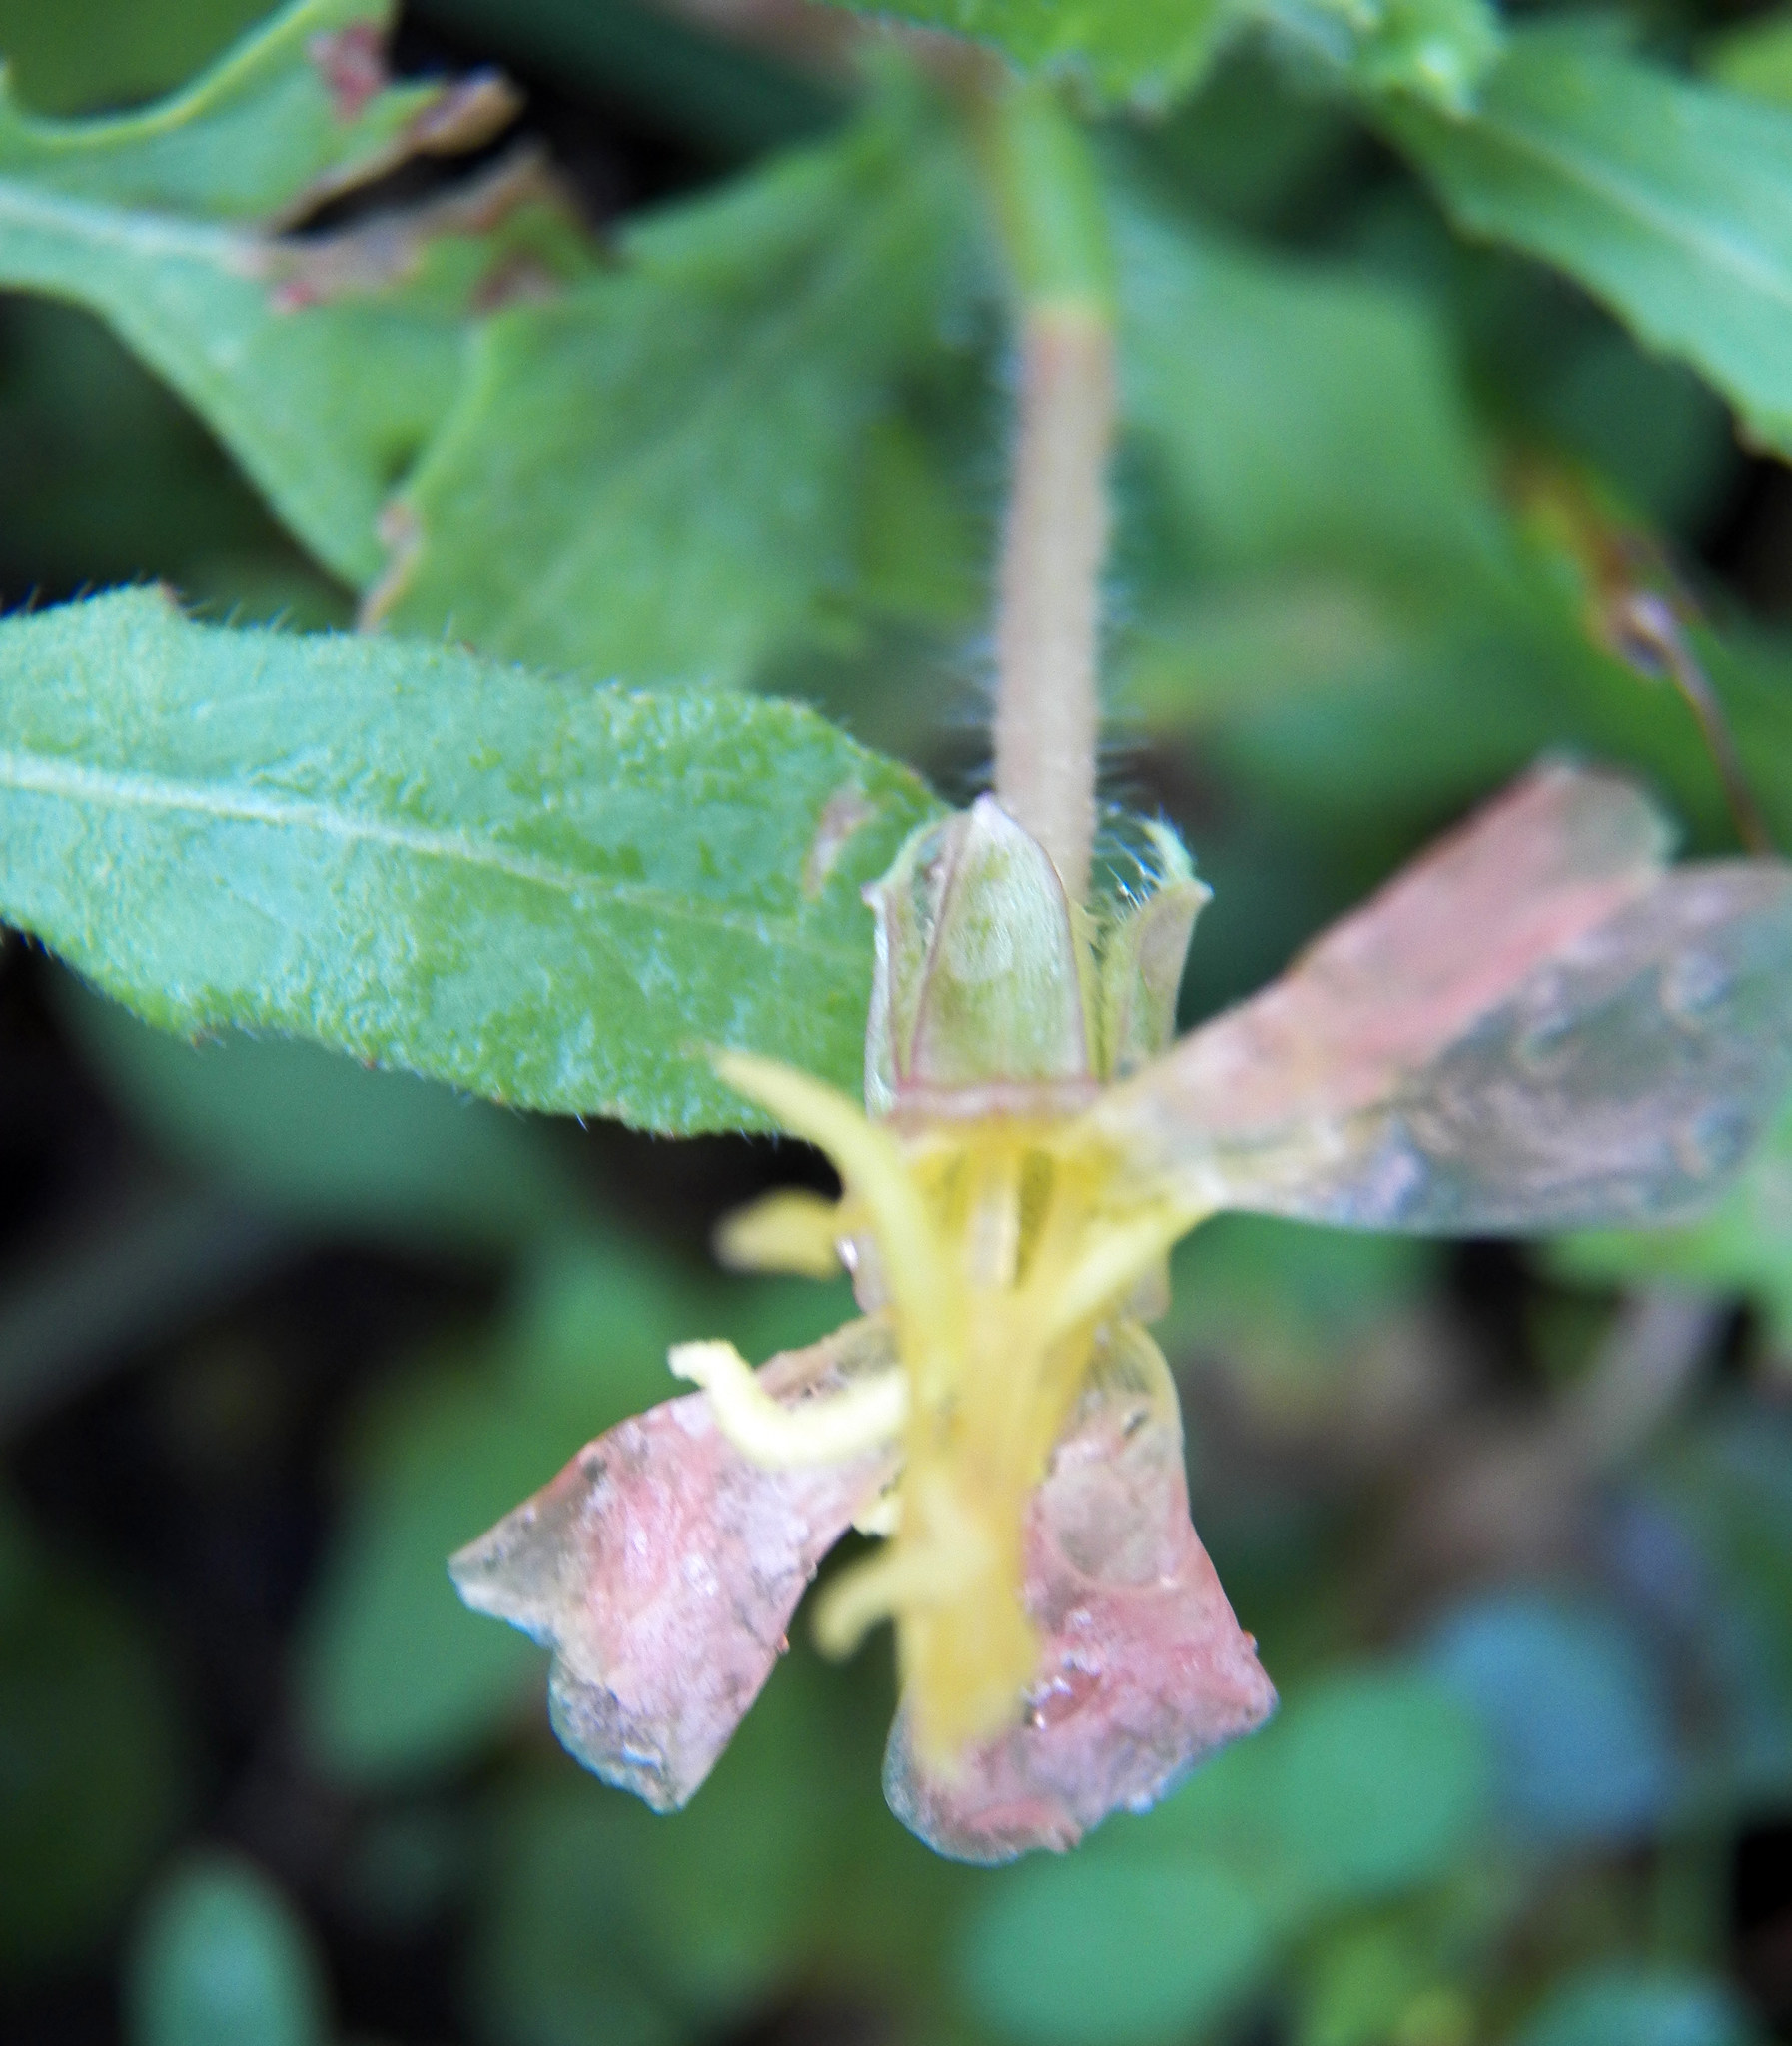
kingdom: Plantae
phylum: Tracheophyta
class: Magnoliopsida
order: Myrtales
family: Onagraceae
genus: Oenothera
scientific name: Oenothera laciniata
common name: Cut-leaved evening-primrose
